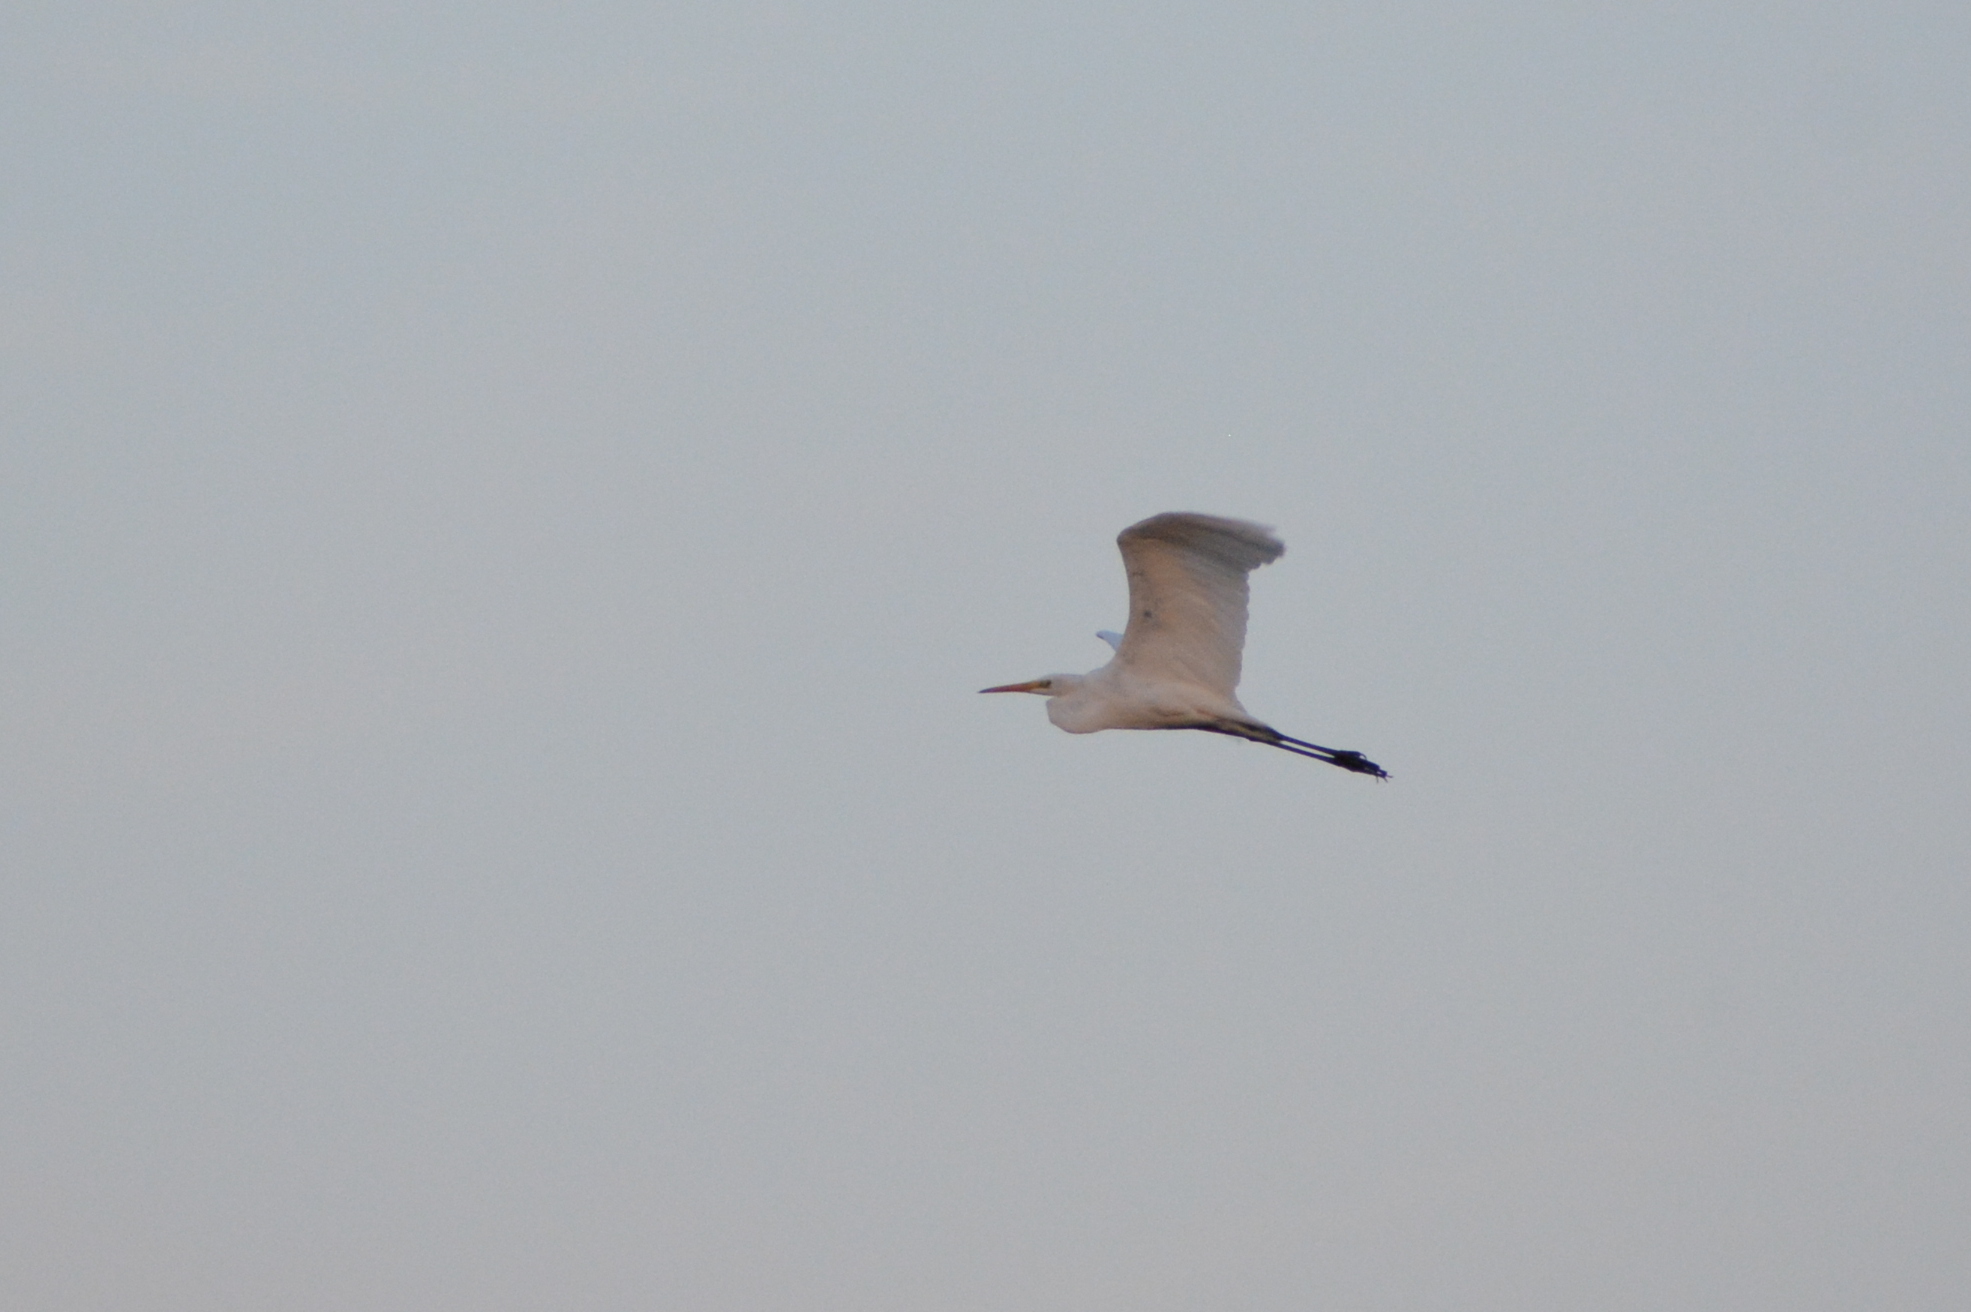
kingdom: Animalia
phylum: Chordata
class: Aves
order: Pelecaniformes
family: Ardeidae
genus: Ardea
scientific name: Ardea alba
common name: Great egret
